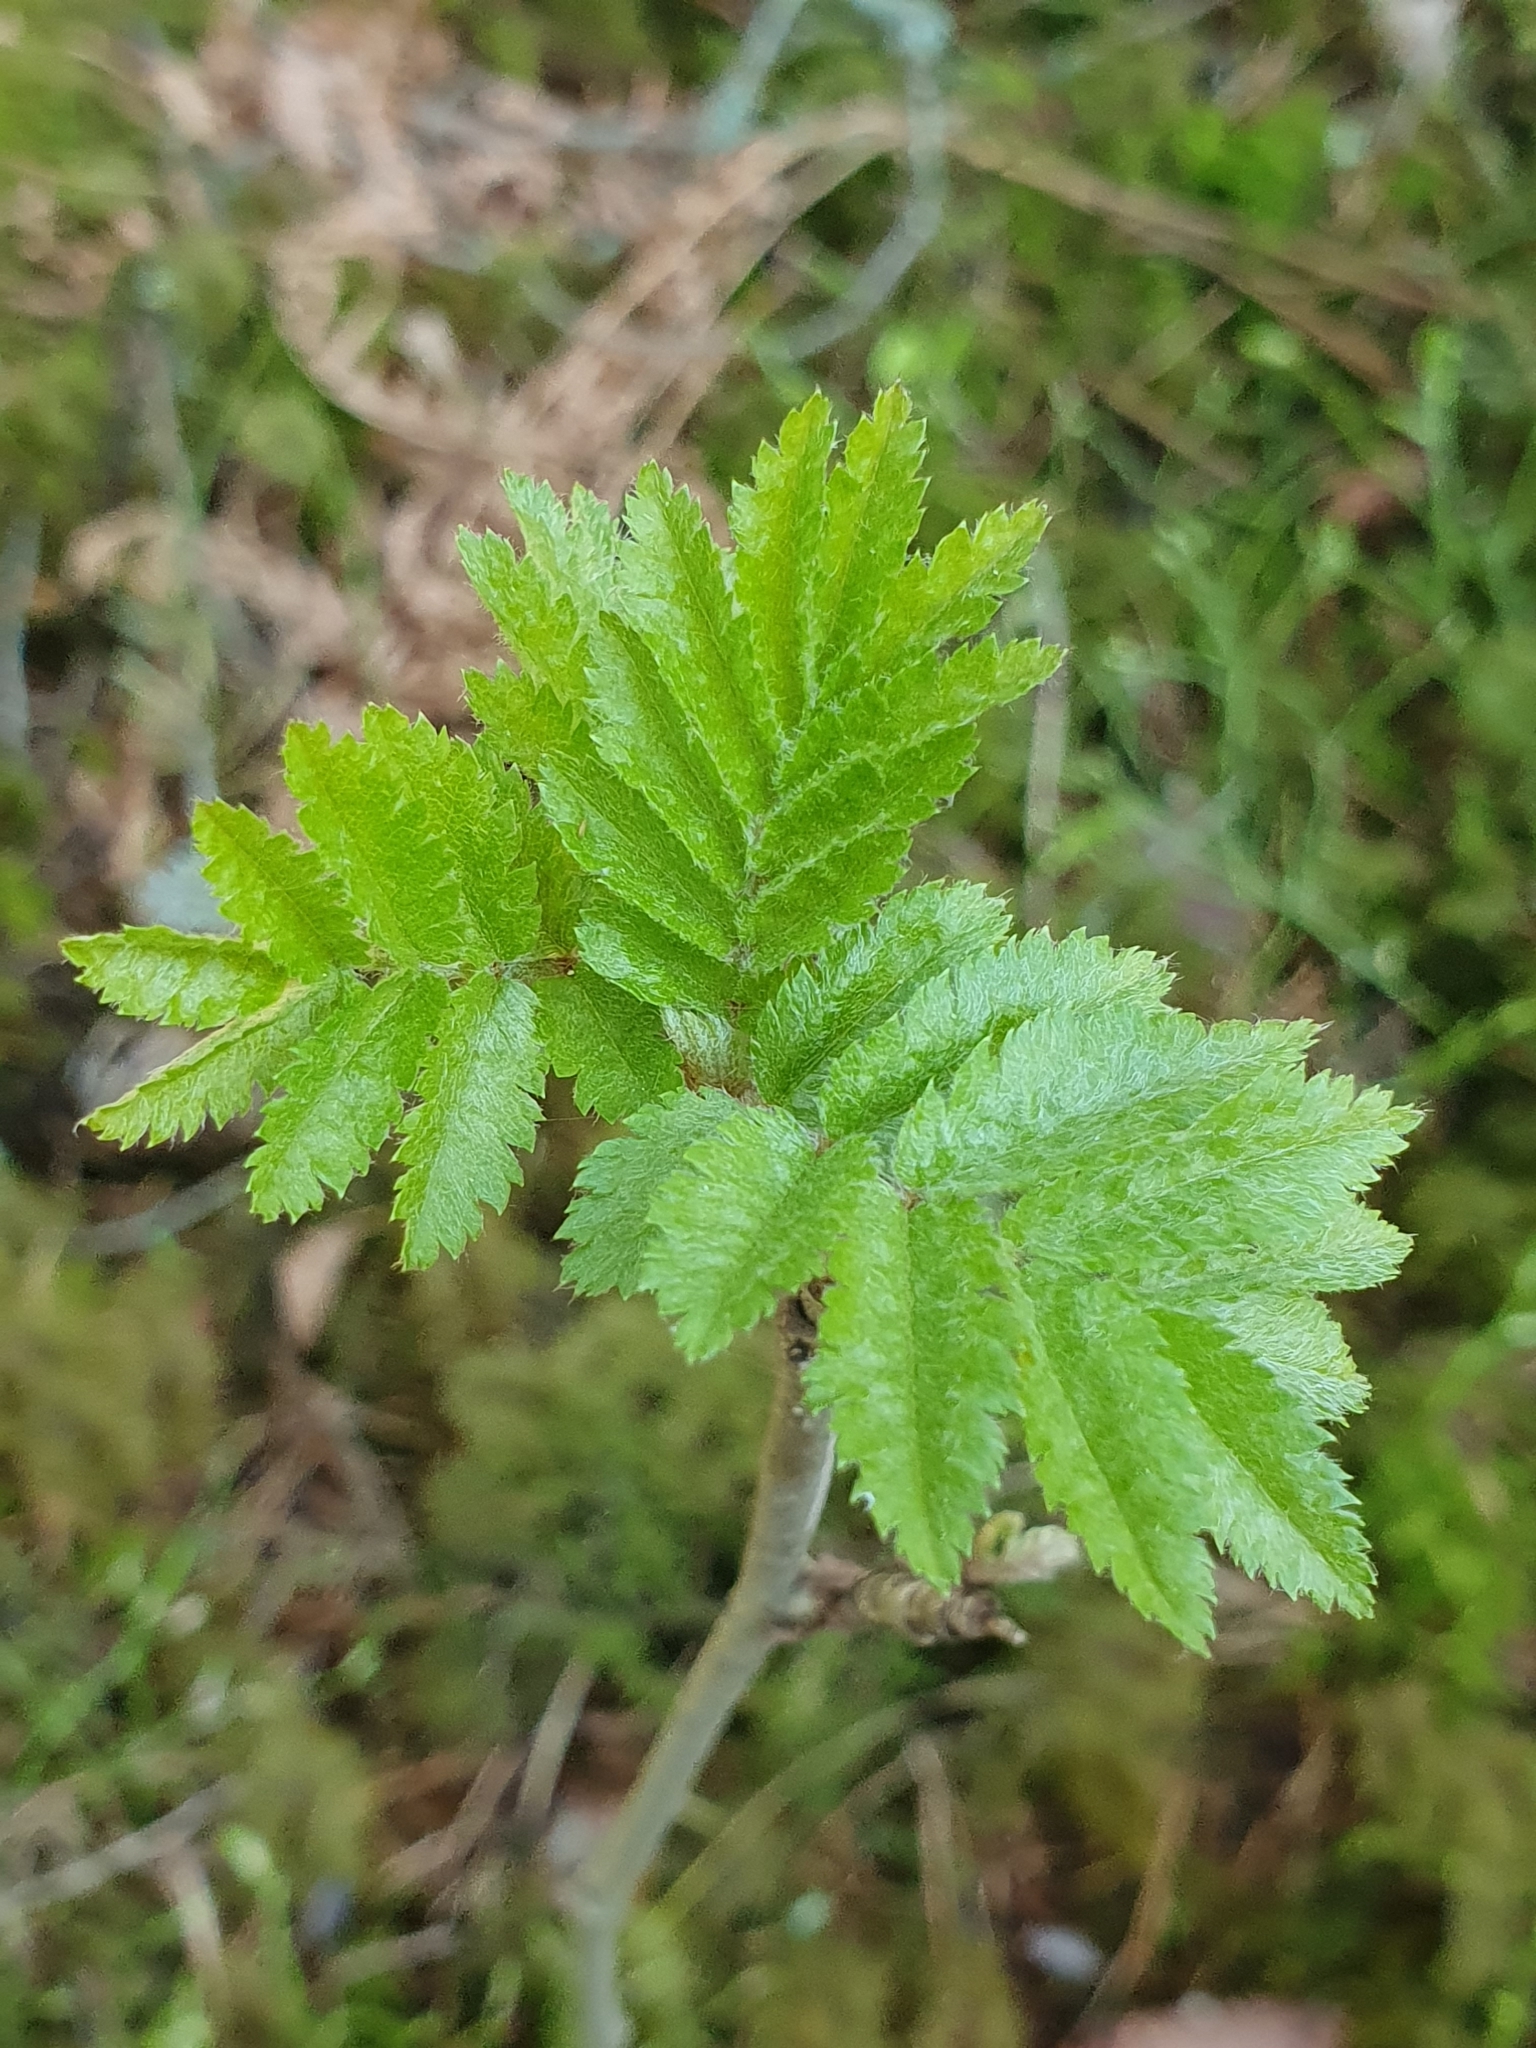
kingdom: Plantae
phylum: Tracheophyta
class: Magnoliopsida
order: Rosales
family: Rosaceae
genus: Sorbus
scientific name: Sorbus aucuparia
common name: Rowan
